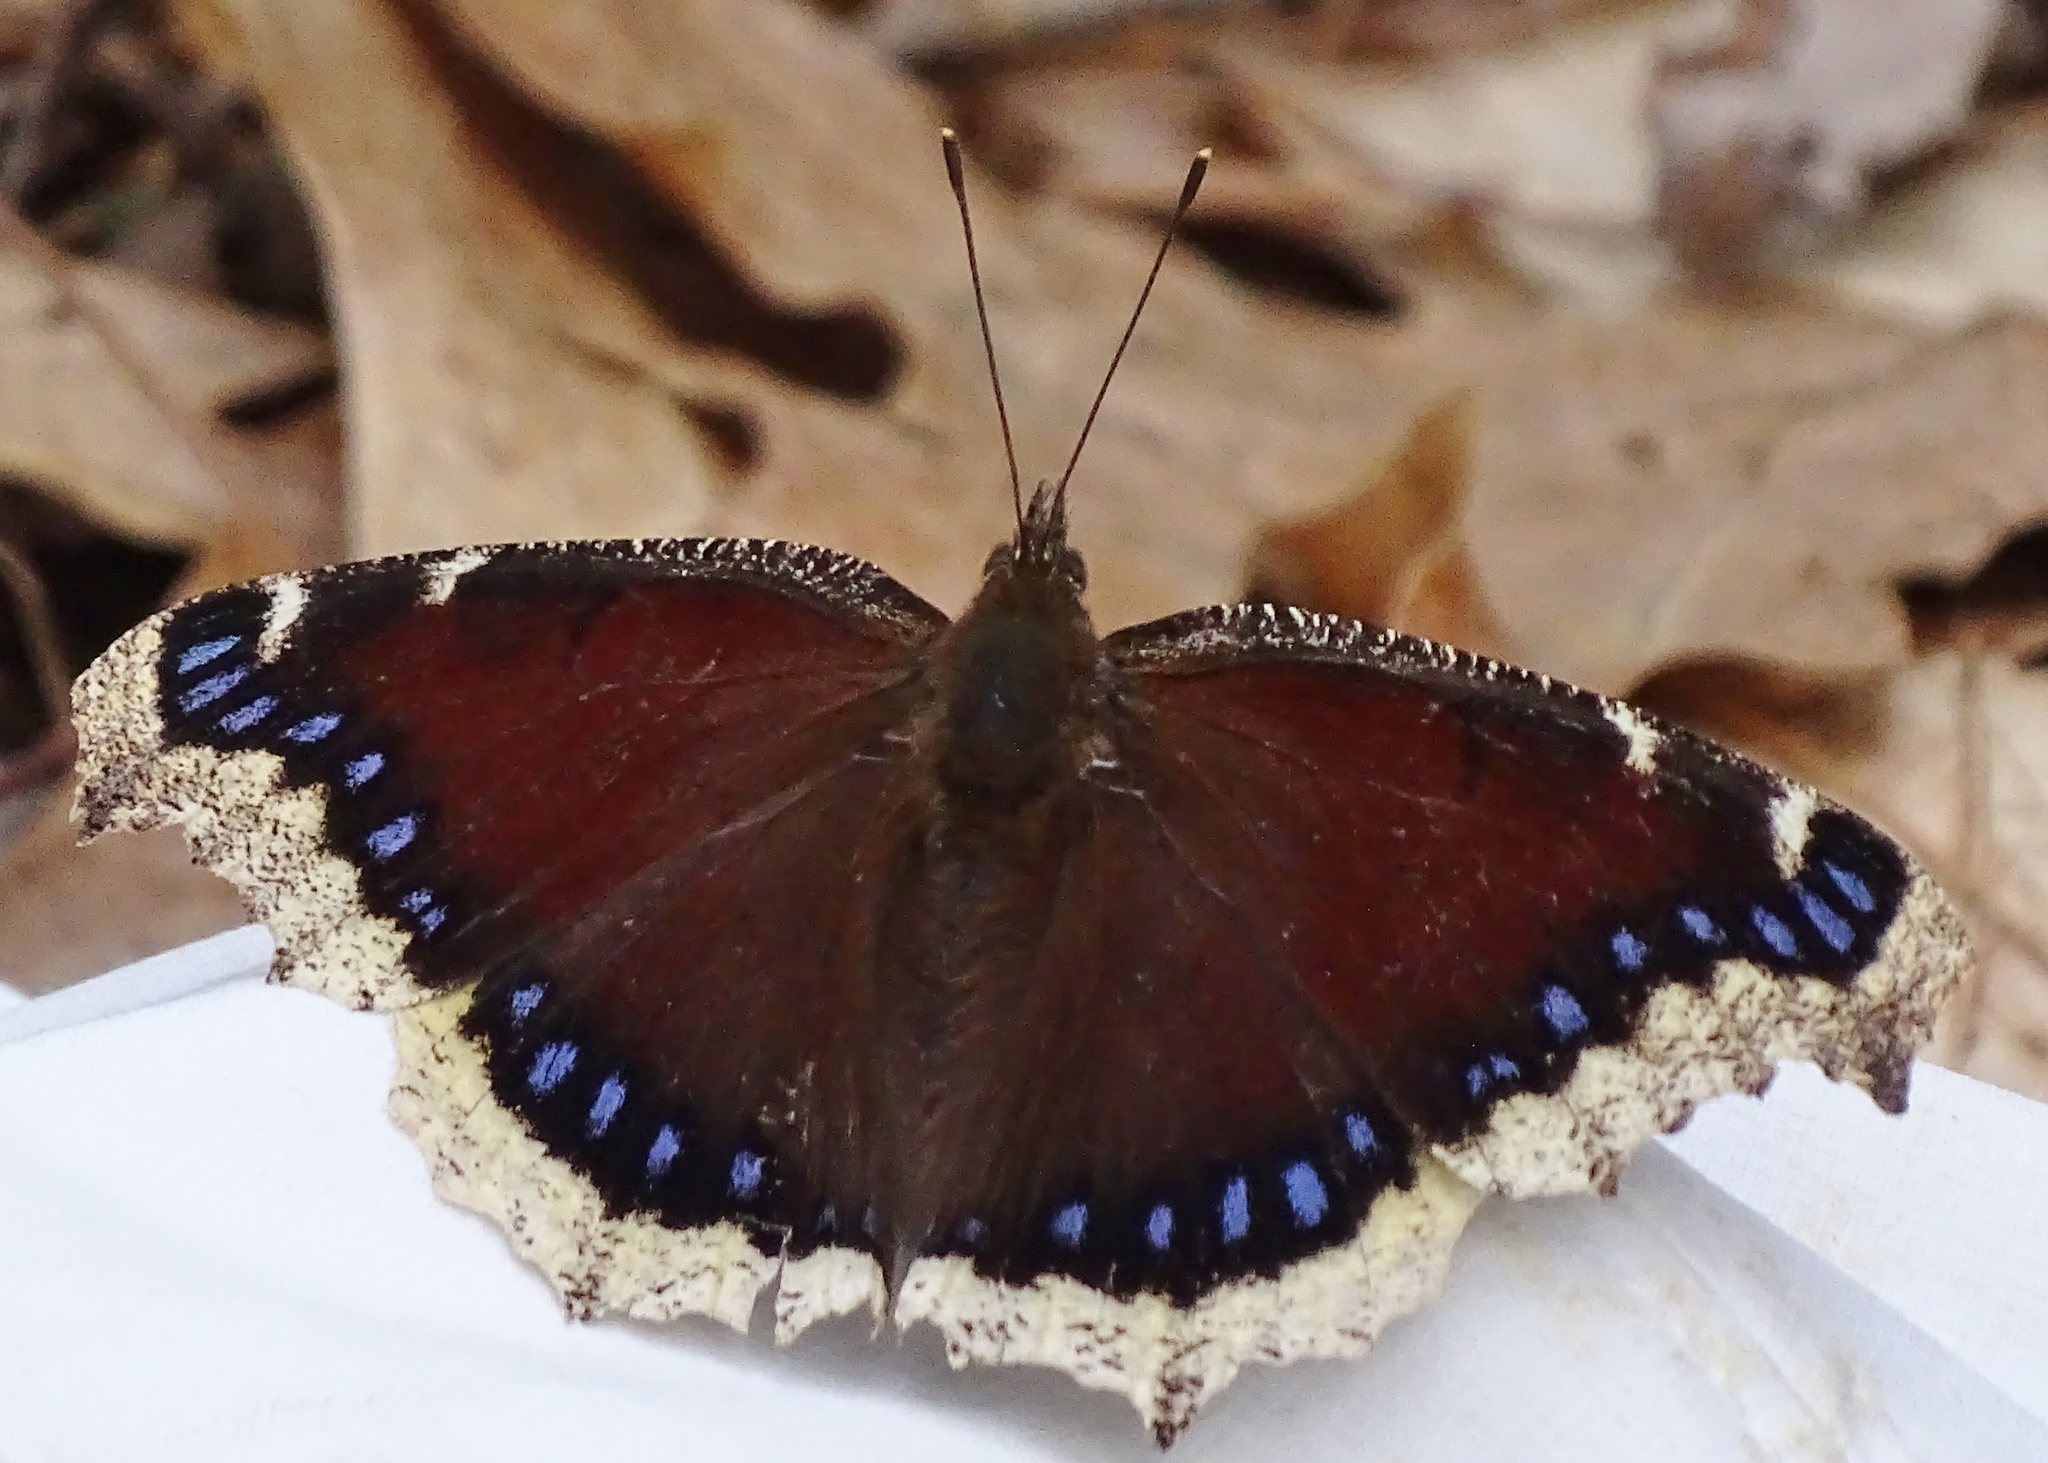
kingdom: Animalia
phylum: Arthropoda
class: Insecta
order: Lepidoptera
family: Nymphalidae
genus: Nymphalis
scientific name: Nymphalis antiopa
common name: Camberwell beauty
